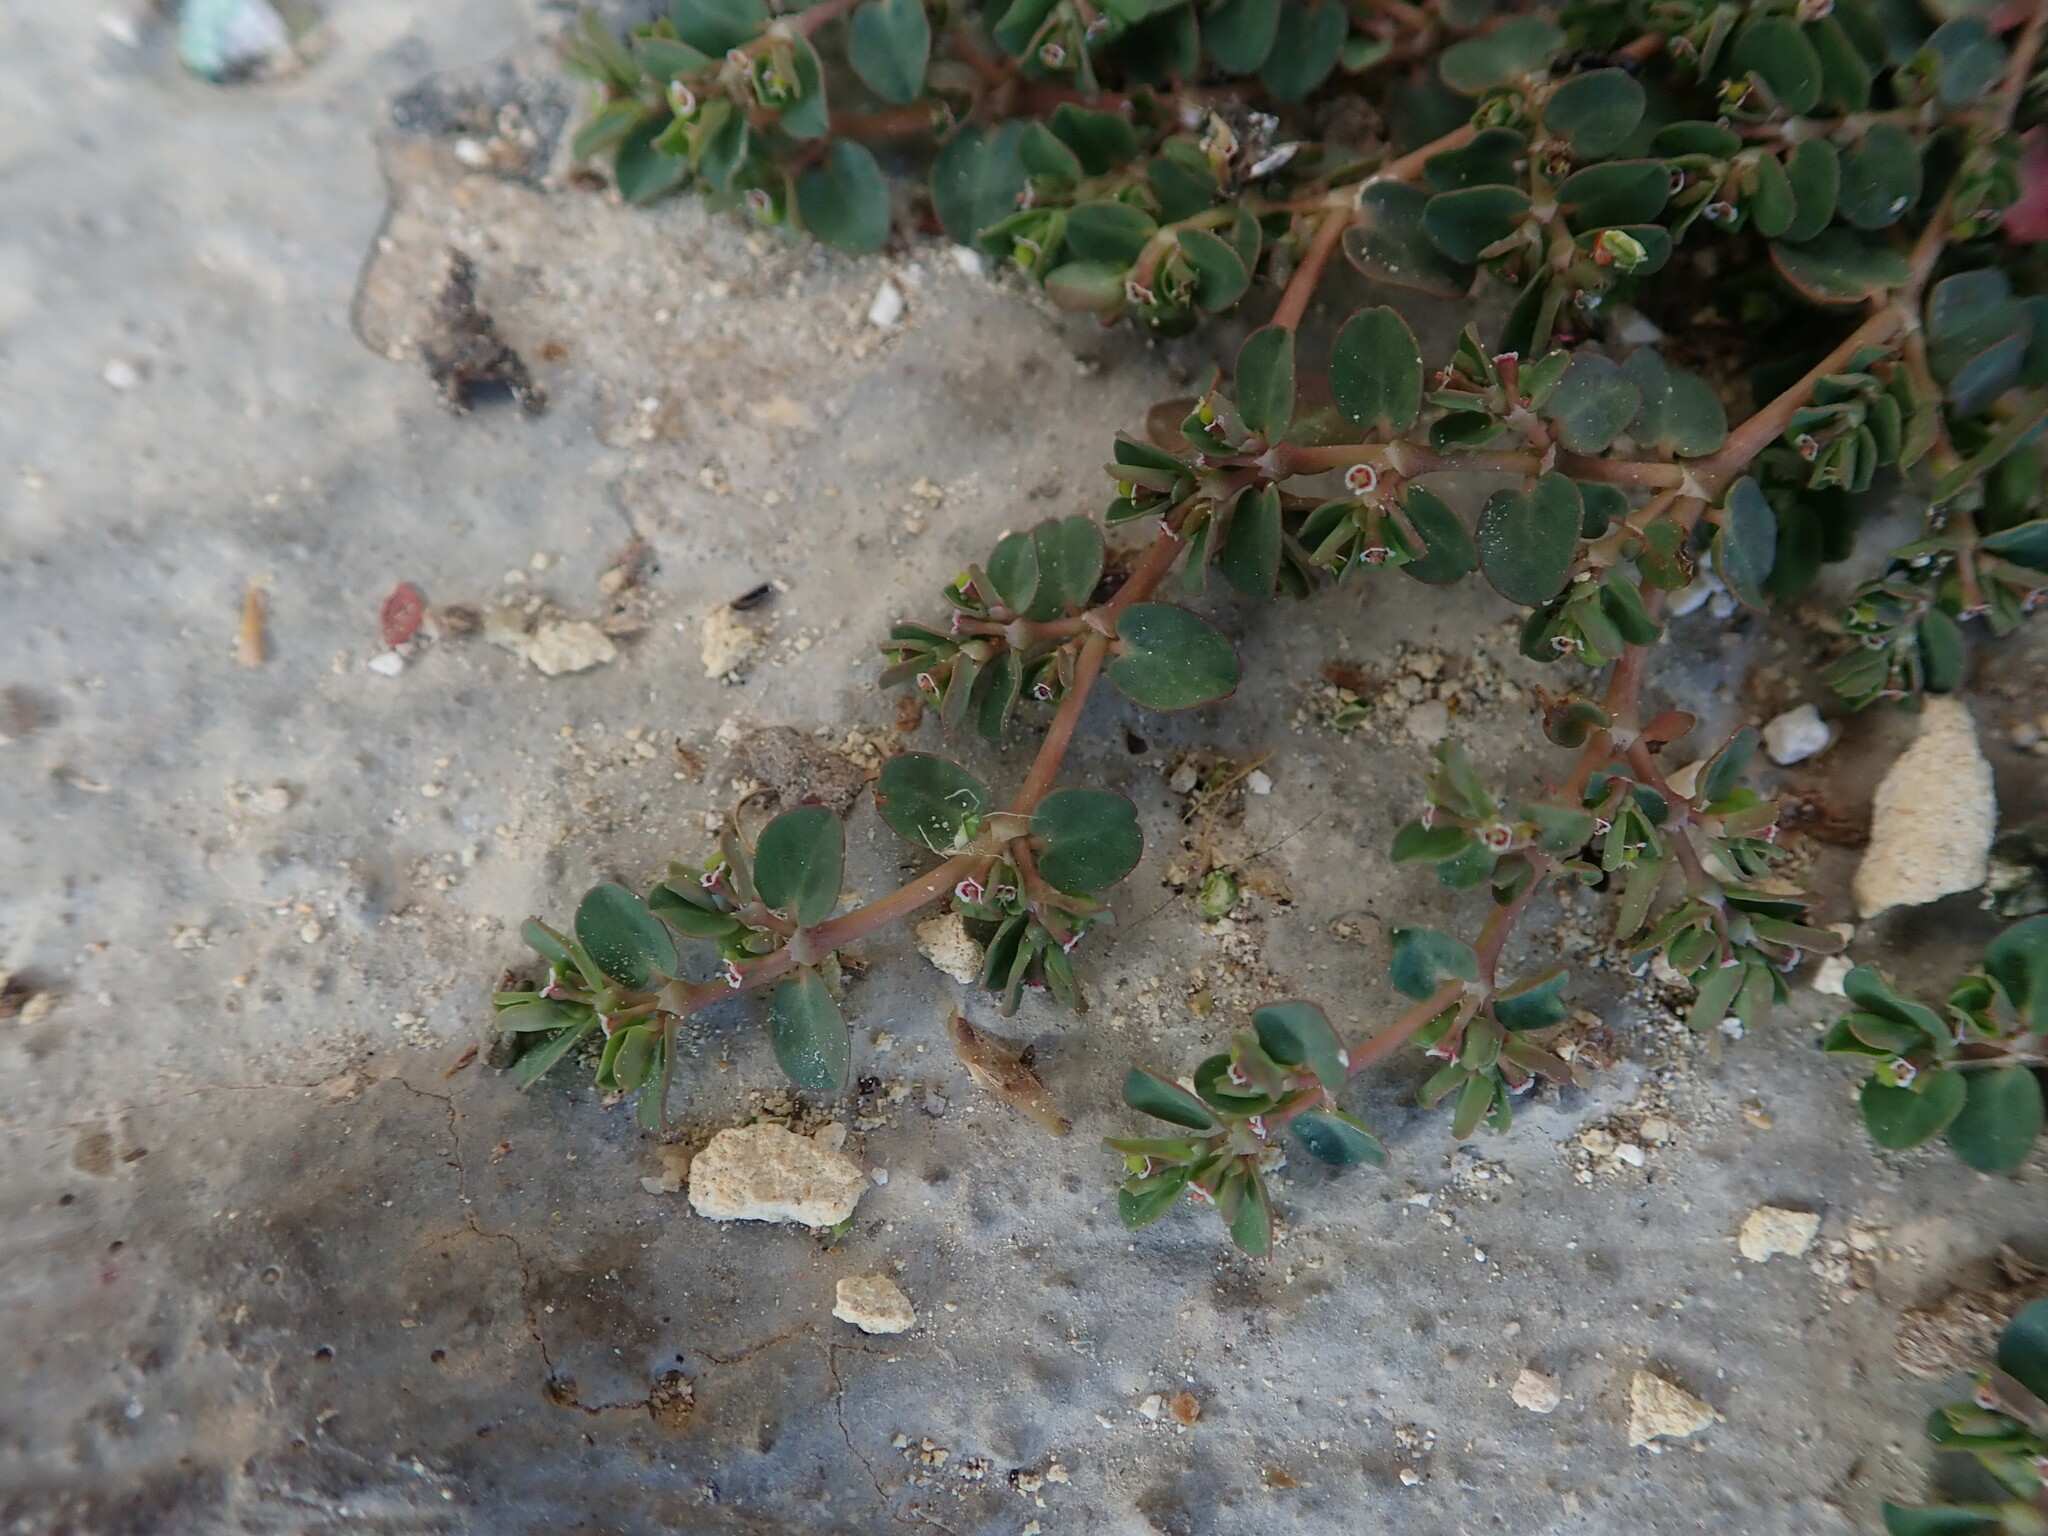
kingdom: Plantae
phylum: Tracheophyta
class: Magnoliopsida
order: Malpighiales
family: Euphorbiaceae
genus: Euphorbia
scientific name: Euphorbia serpens
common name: Matted sandmat
